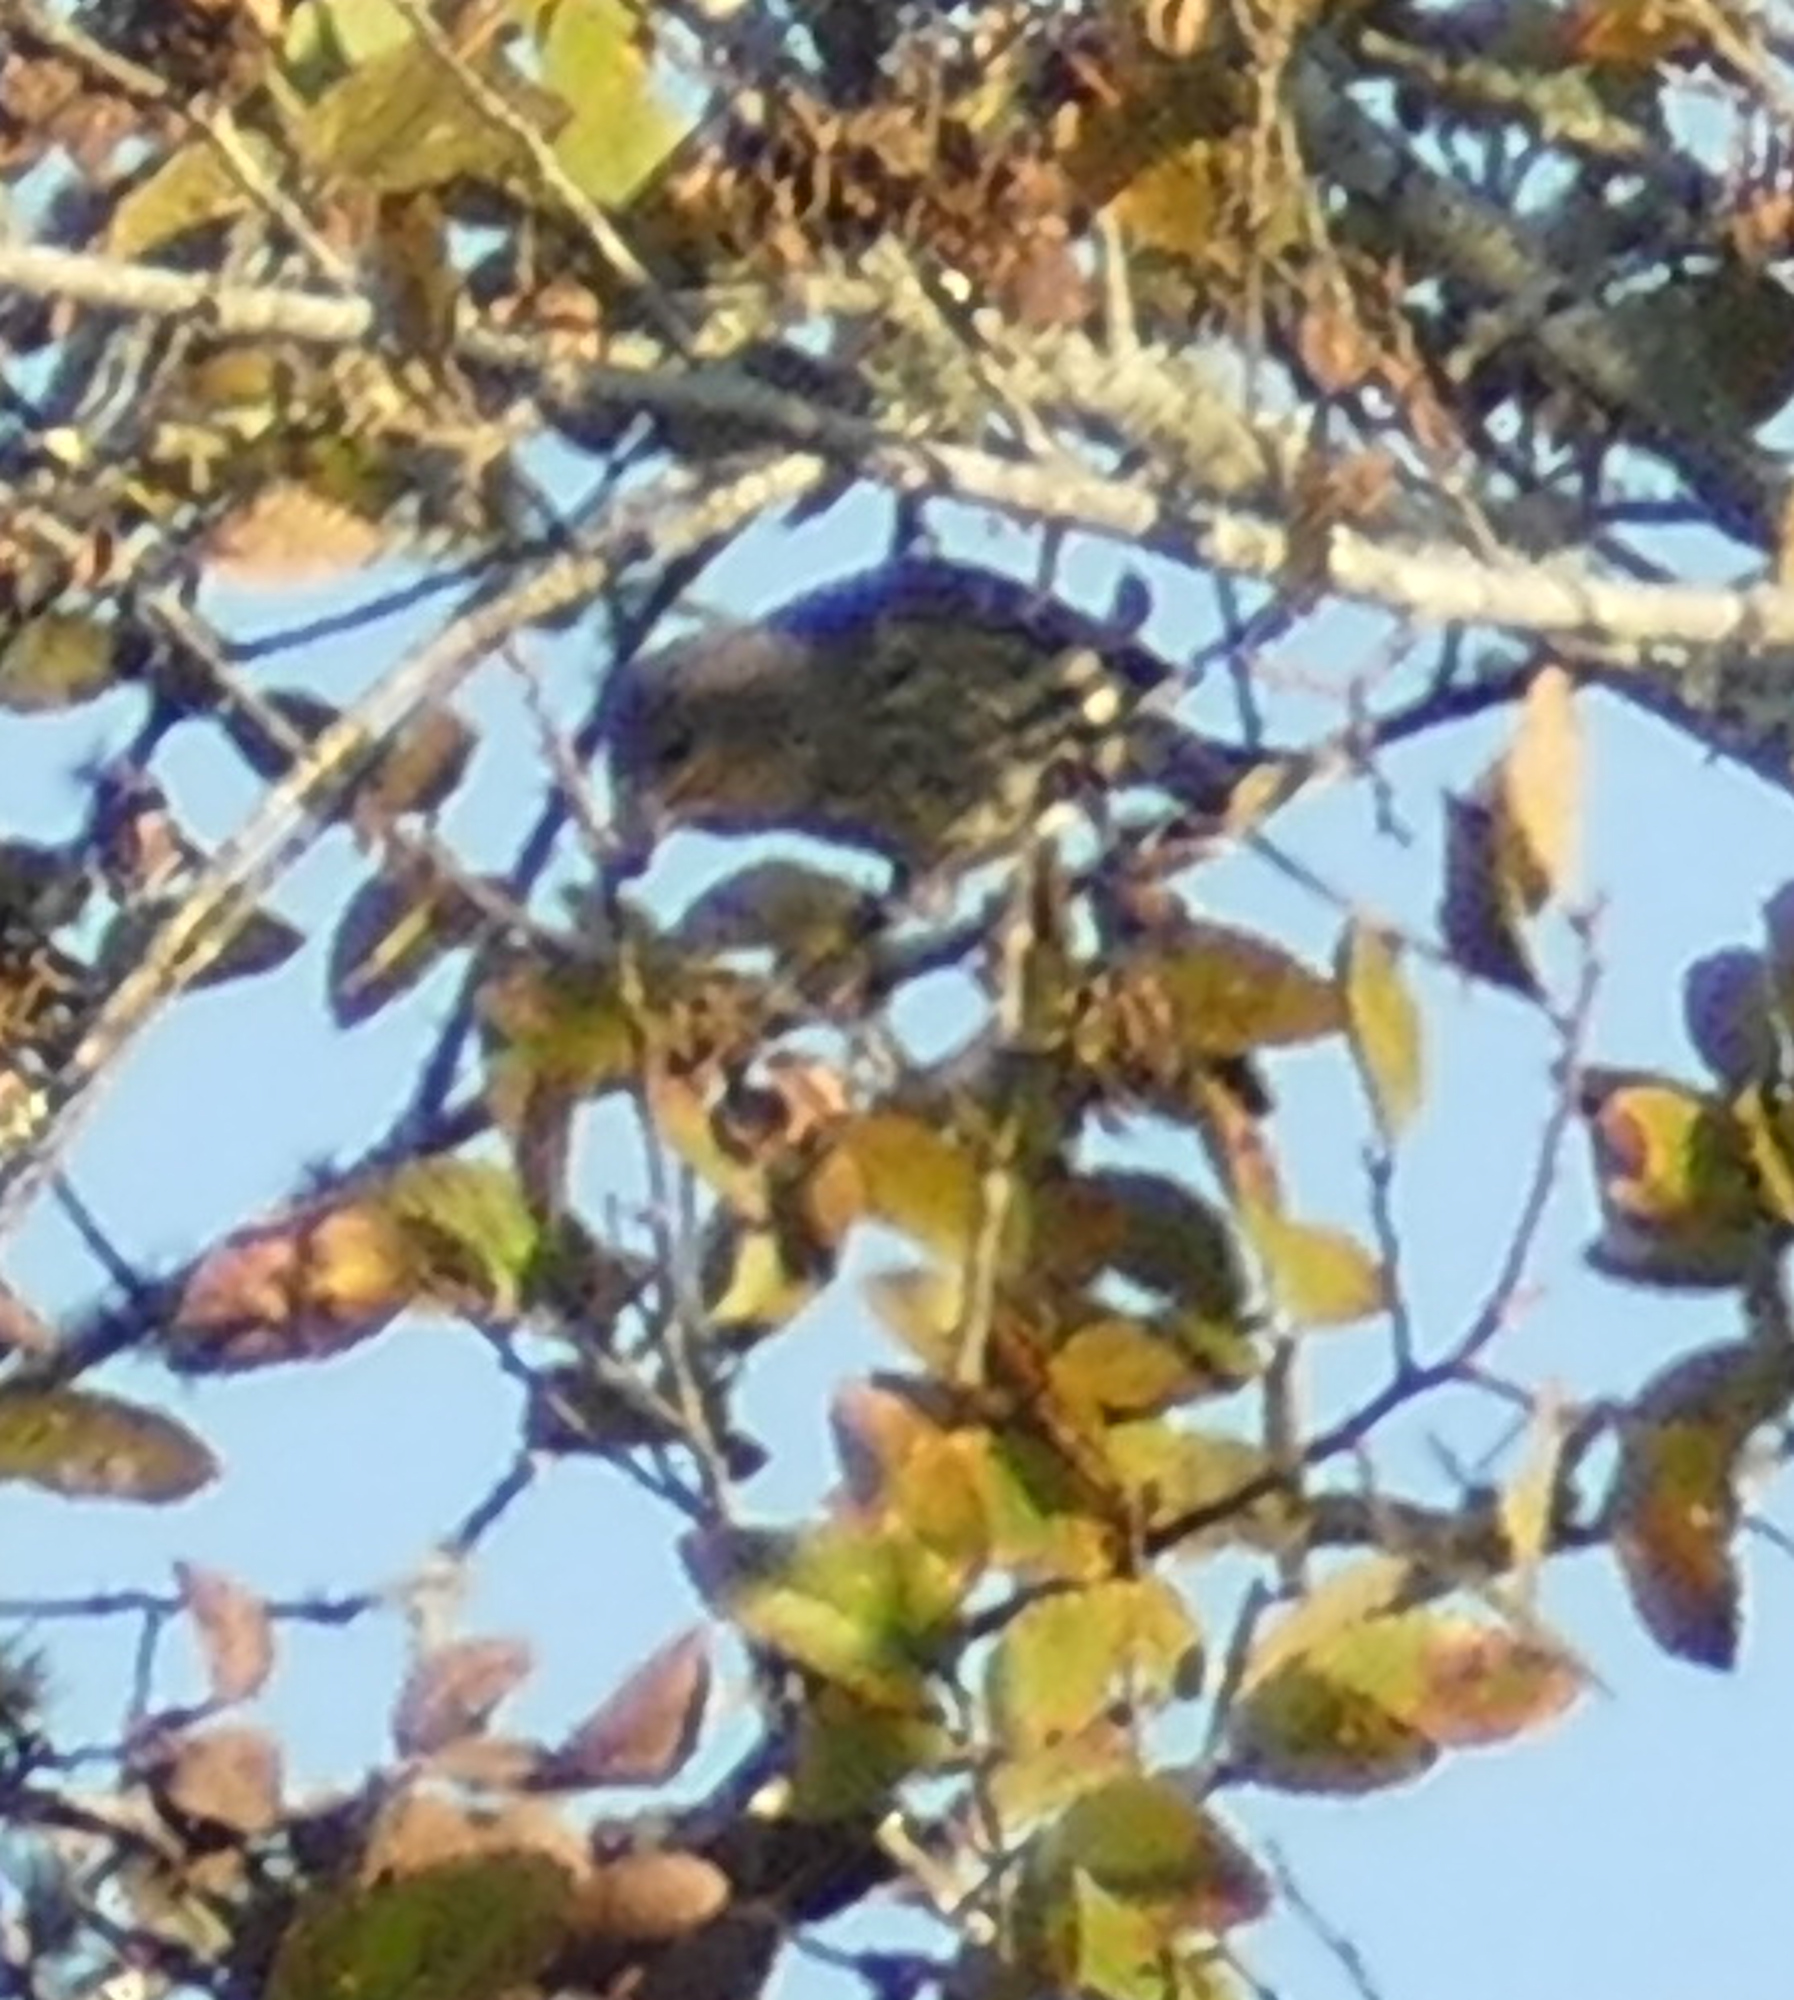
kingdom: Animalia
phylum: Chordata
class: Aves
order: Passeriformes
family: Fringillidae
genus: Spinus
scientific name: Spinus pinus
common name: Pine siskin
